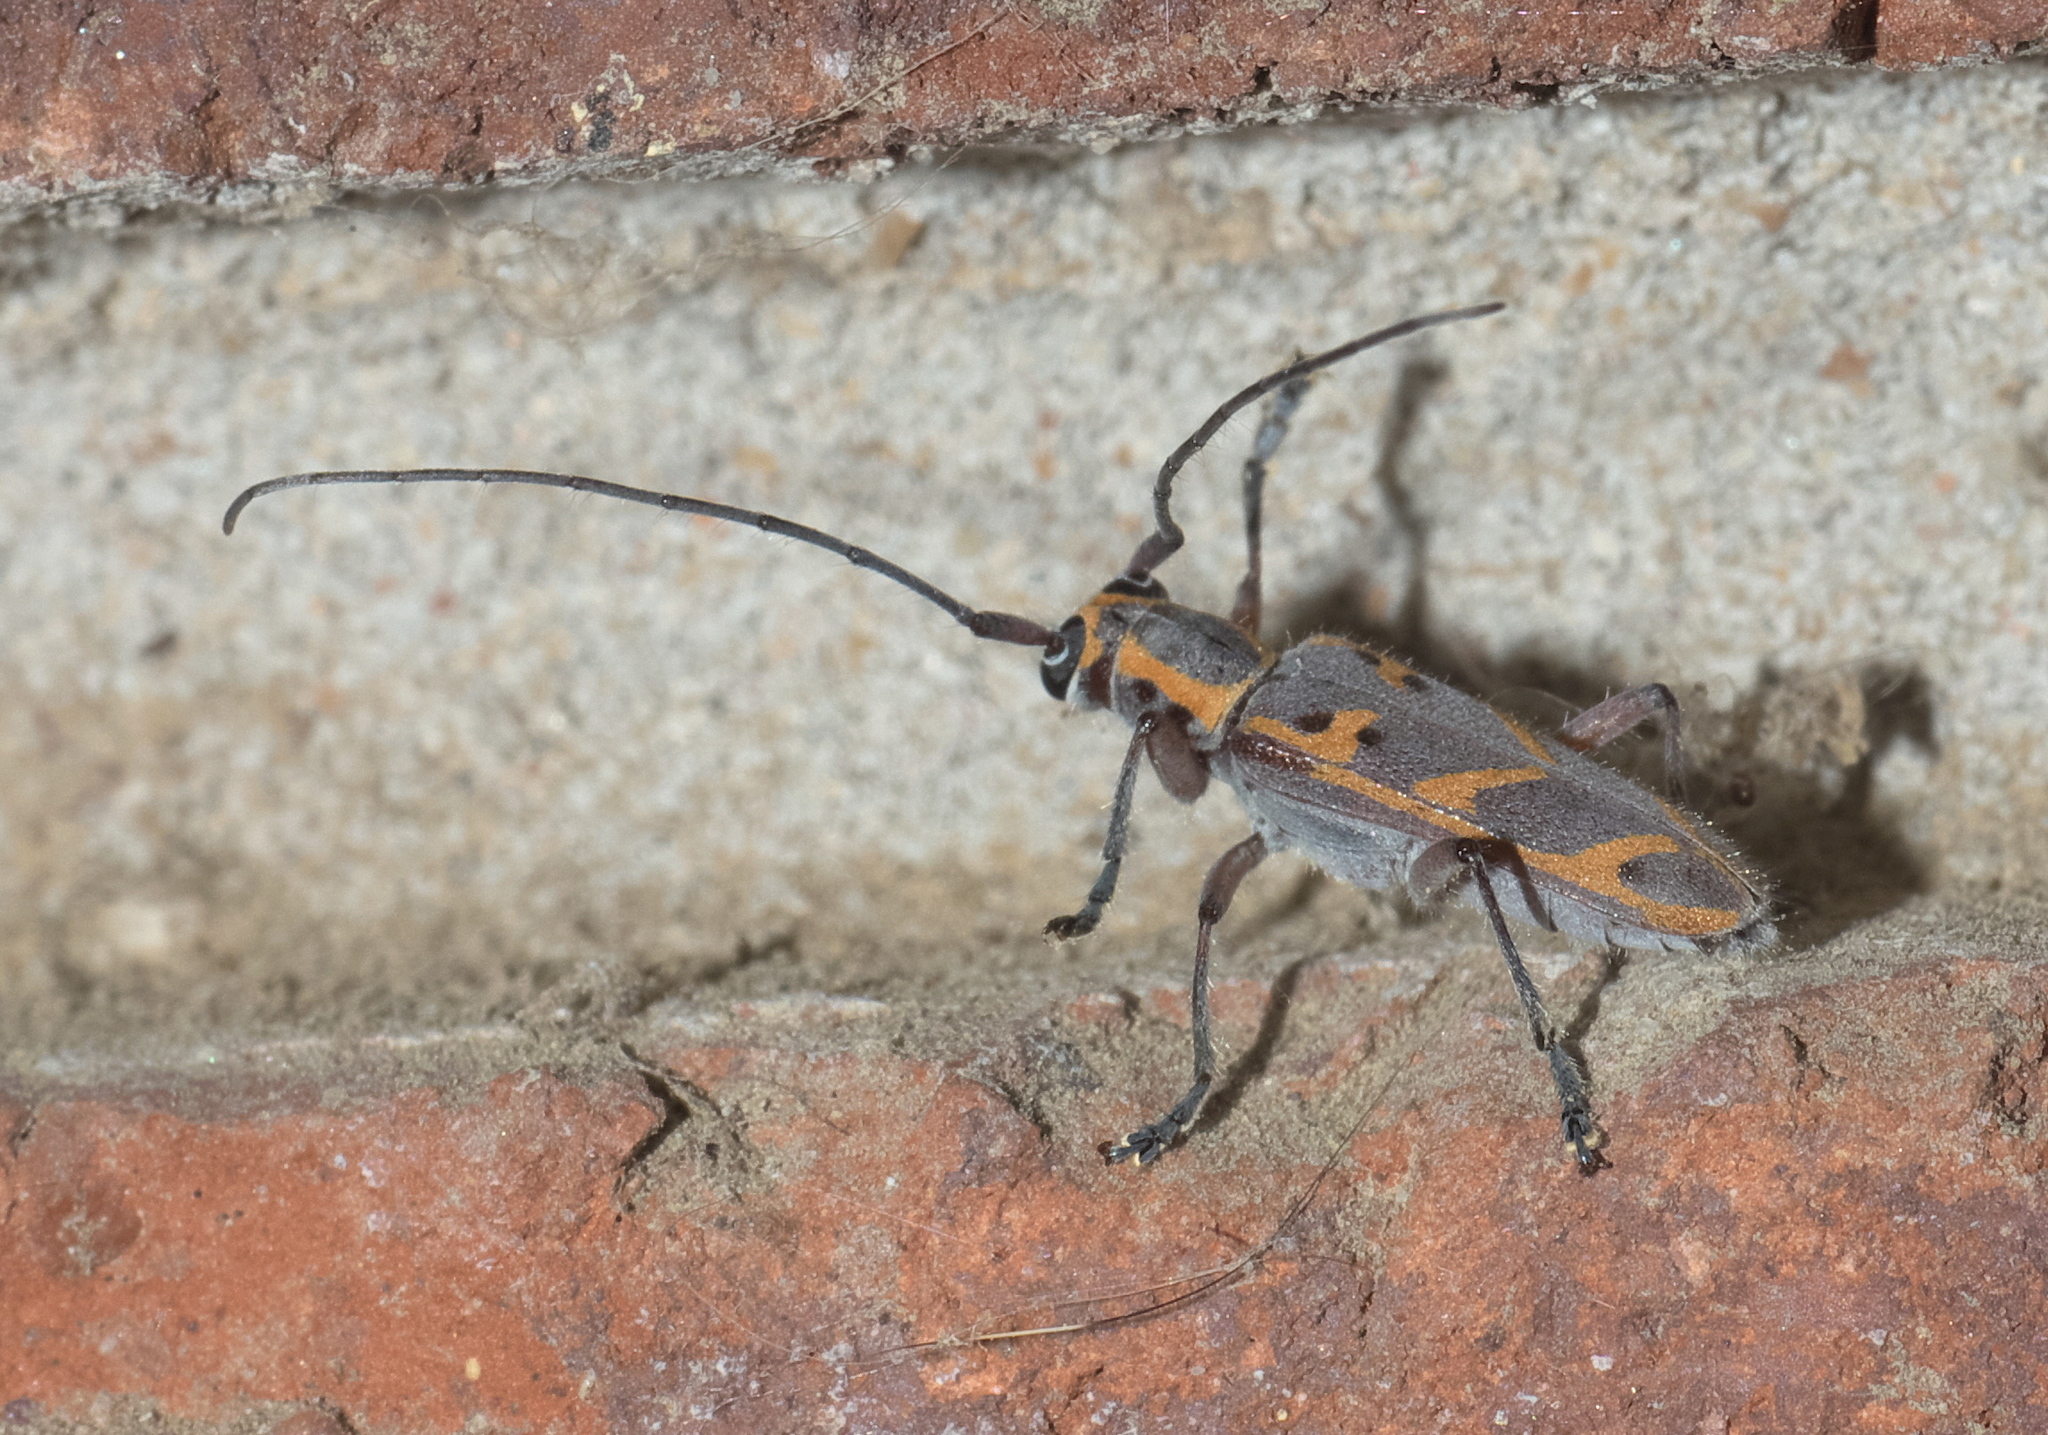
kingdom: Animalia
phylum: Arthropoda
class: Insecta
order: Coleoptera
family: Cerambycidae
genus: Saperda
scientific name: Saperda tridentata
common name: Elm borer
